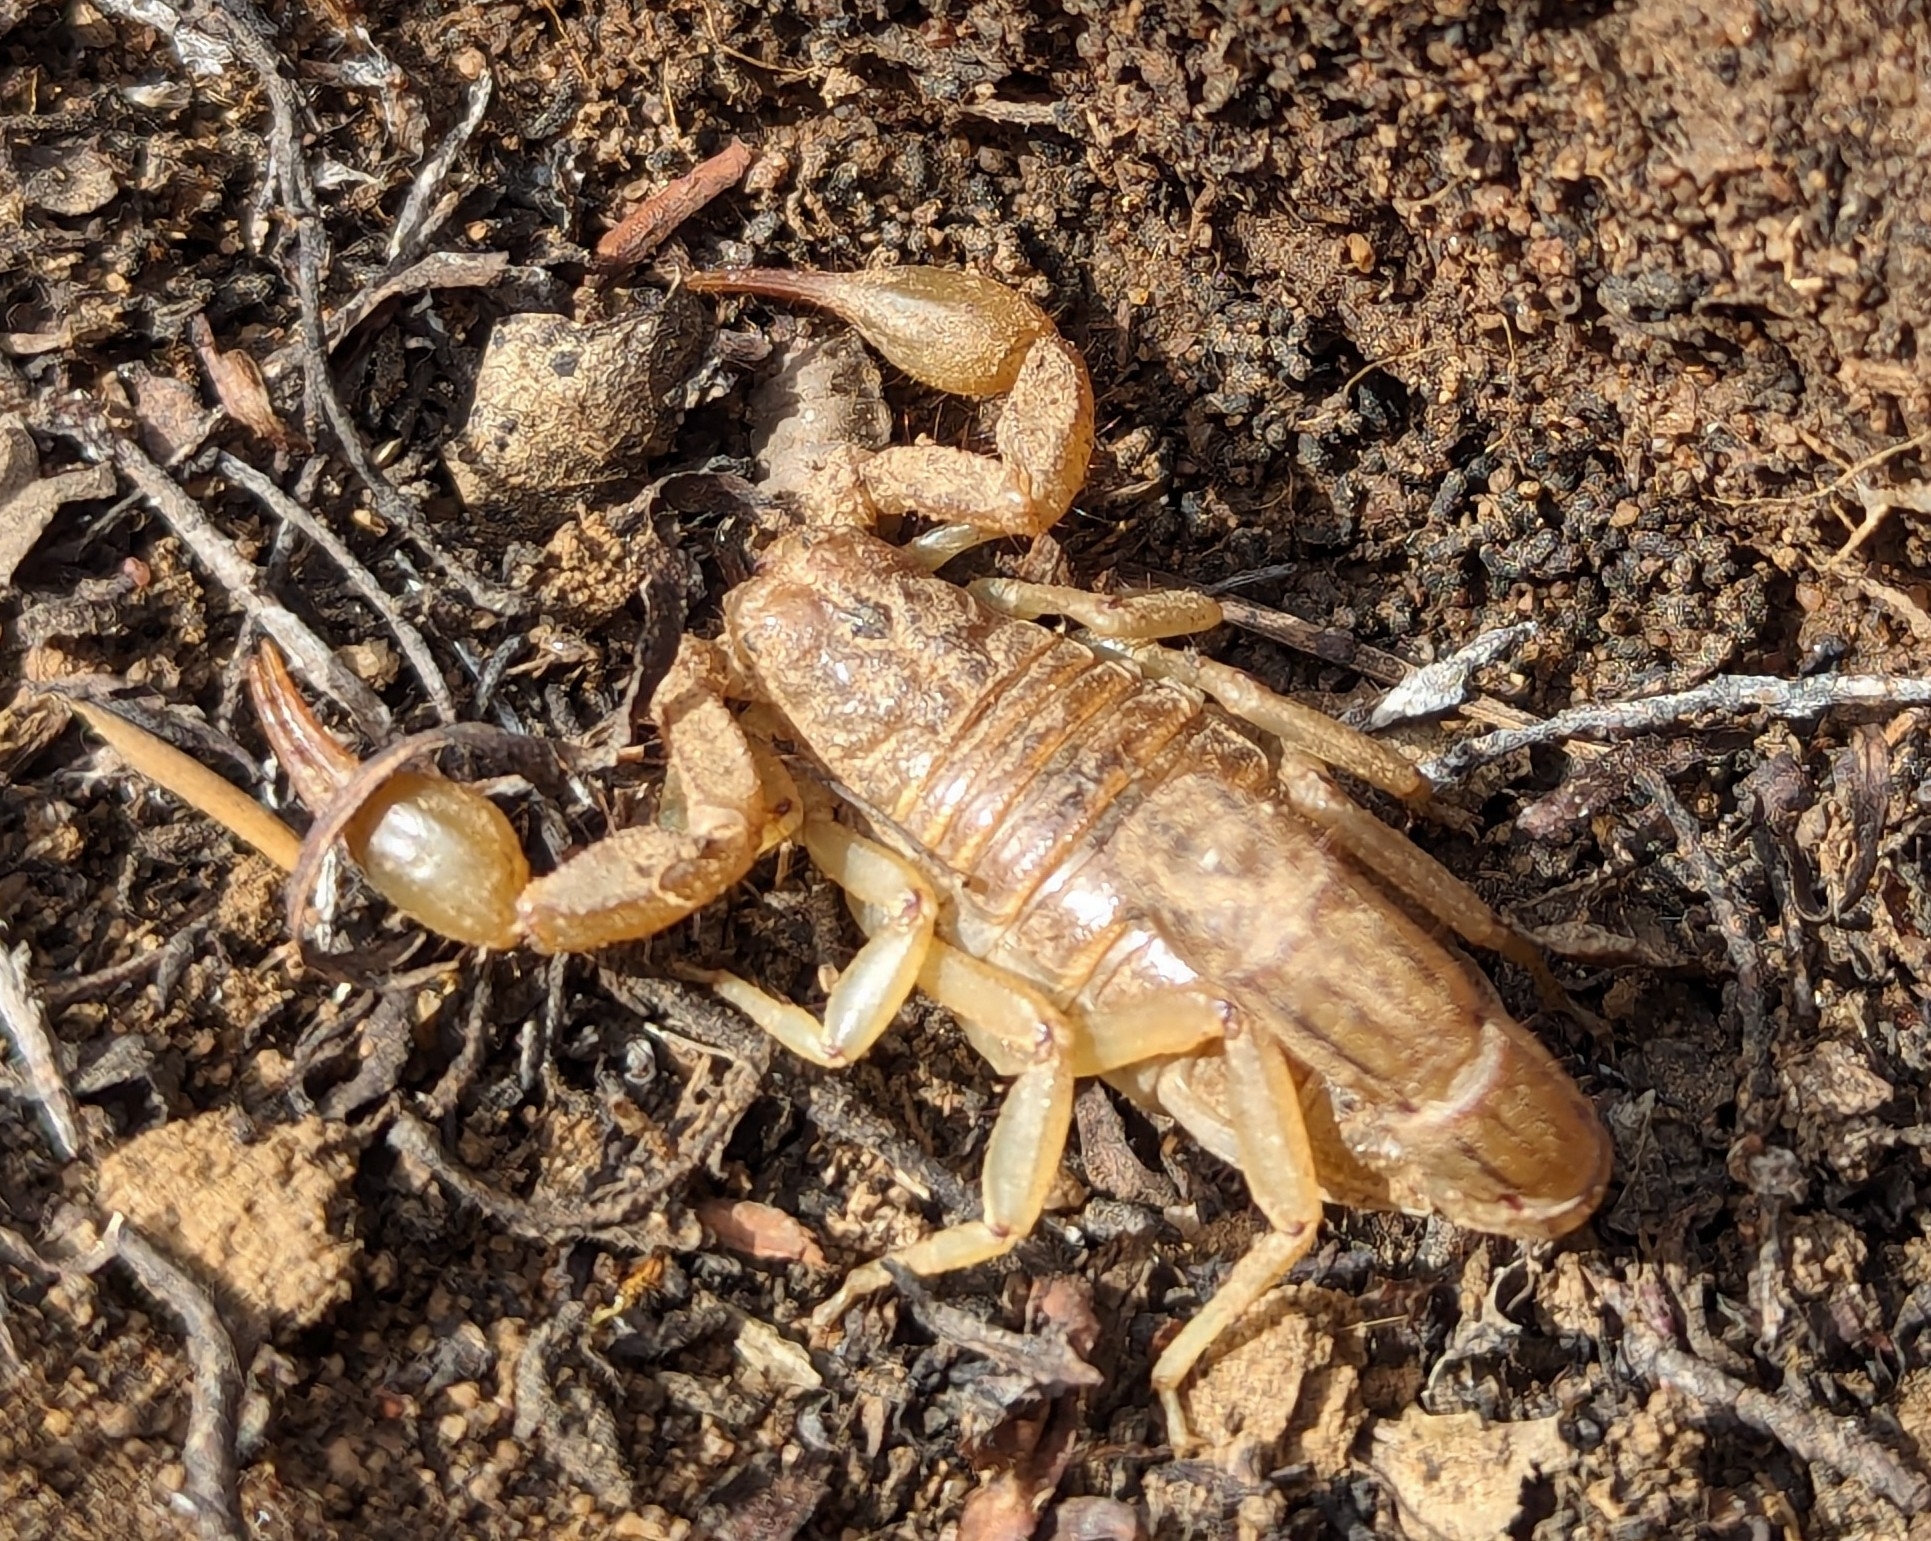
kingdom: Animalia
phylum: Arthropoda
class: Arachnida
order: Scorpiones
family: Vaejovidae
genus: Paravaejovis
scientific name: Paravaejovis spinigerus
